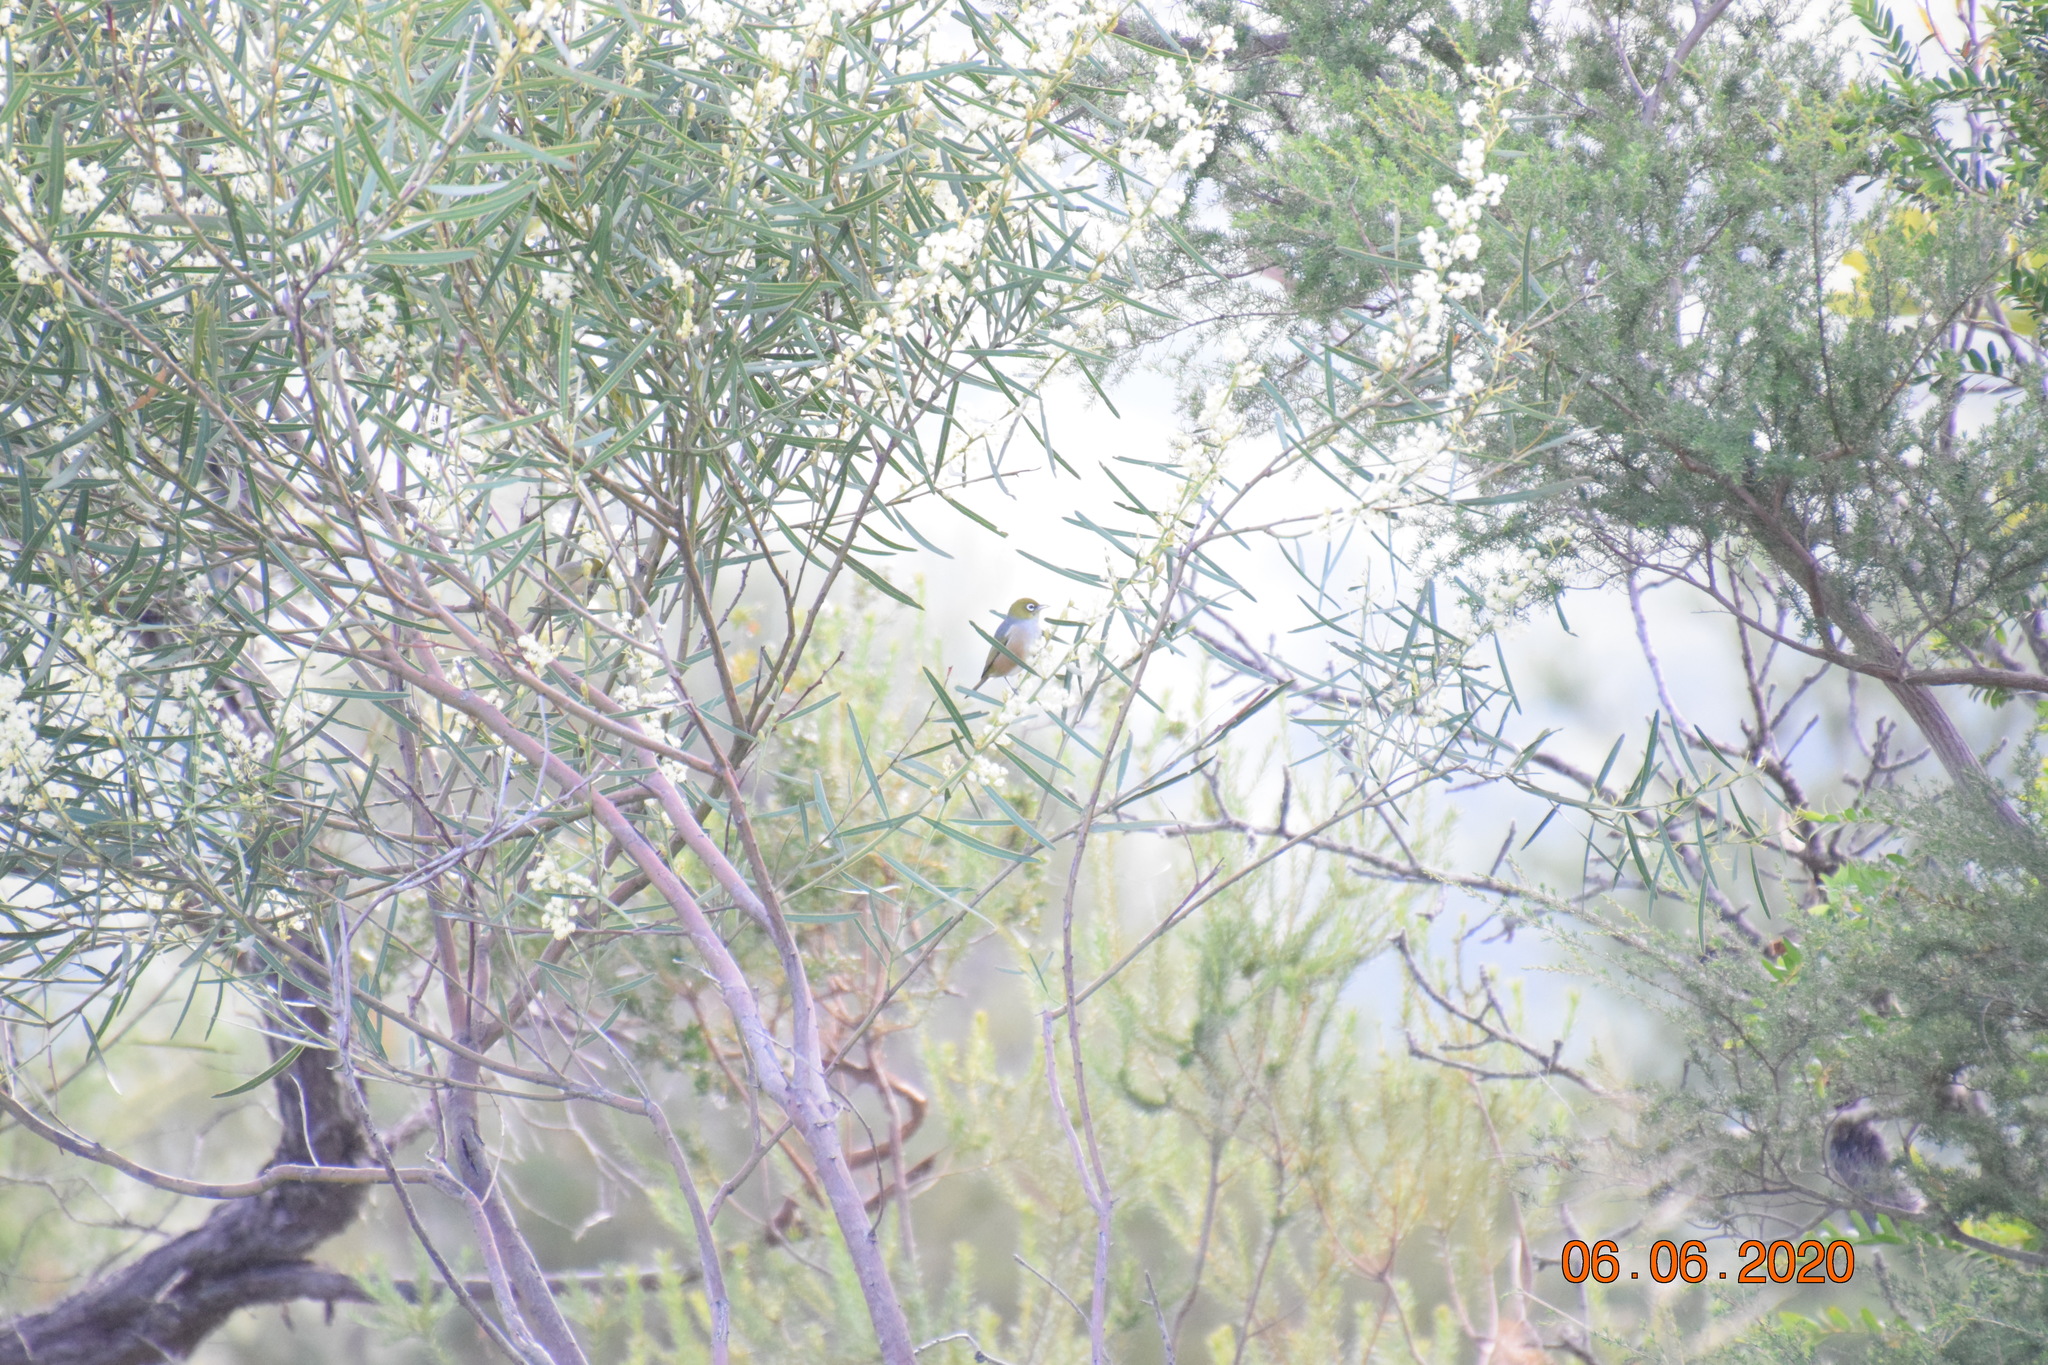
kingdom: Animalia
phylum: Chordata
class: Aves
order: Passeriformes
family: Zosteropidae
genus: Zosterops
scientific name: Zosterops lateralis
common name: Silvereye
